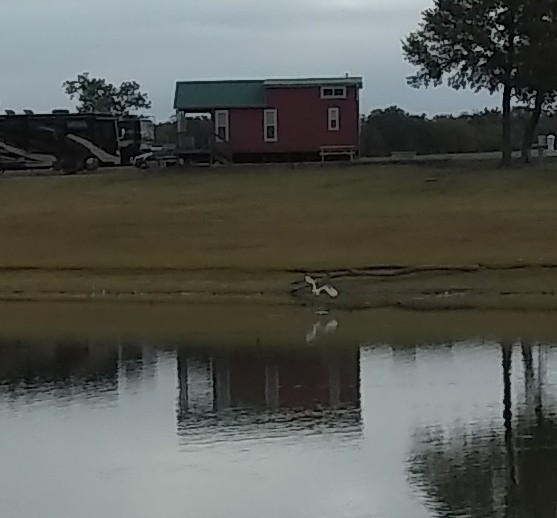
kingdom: Animalia
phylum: Chordata
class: Aves
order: Pelecaniformes
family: Ardeidae
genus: Ardea
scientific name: Ardea alba
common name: Great egret
